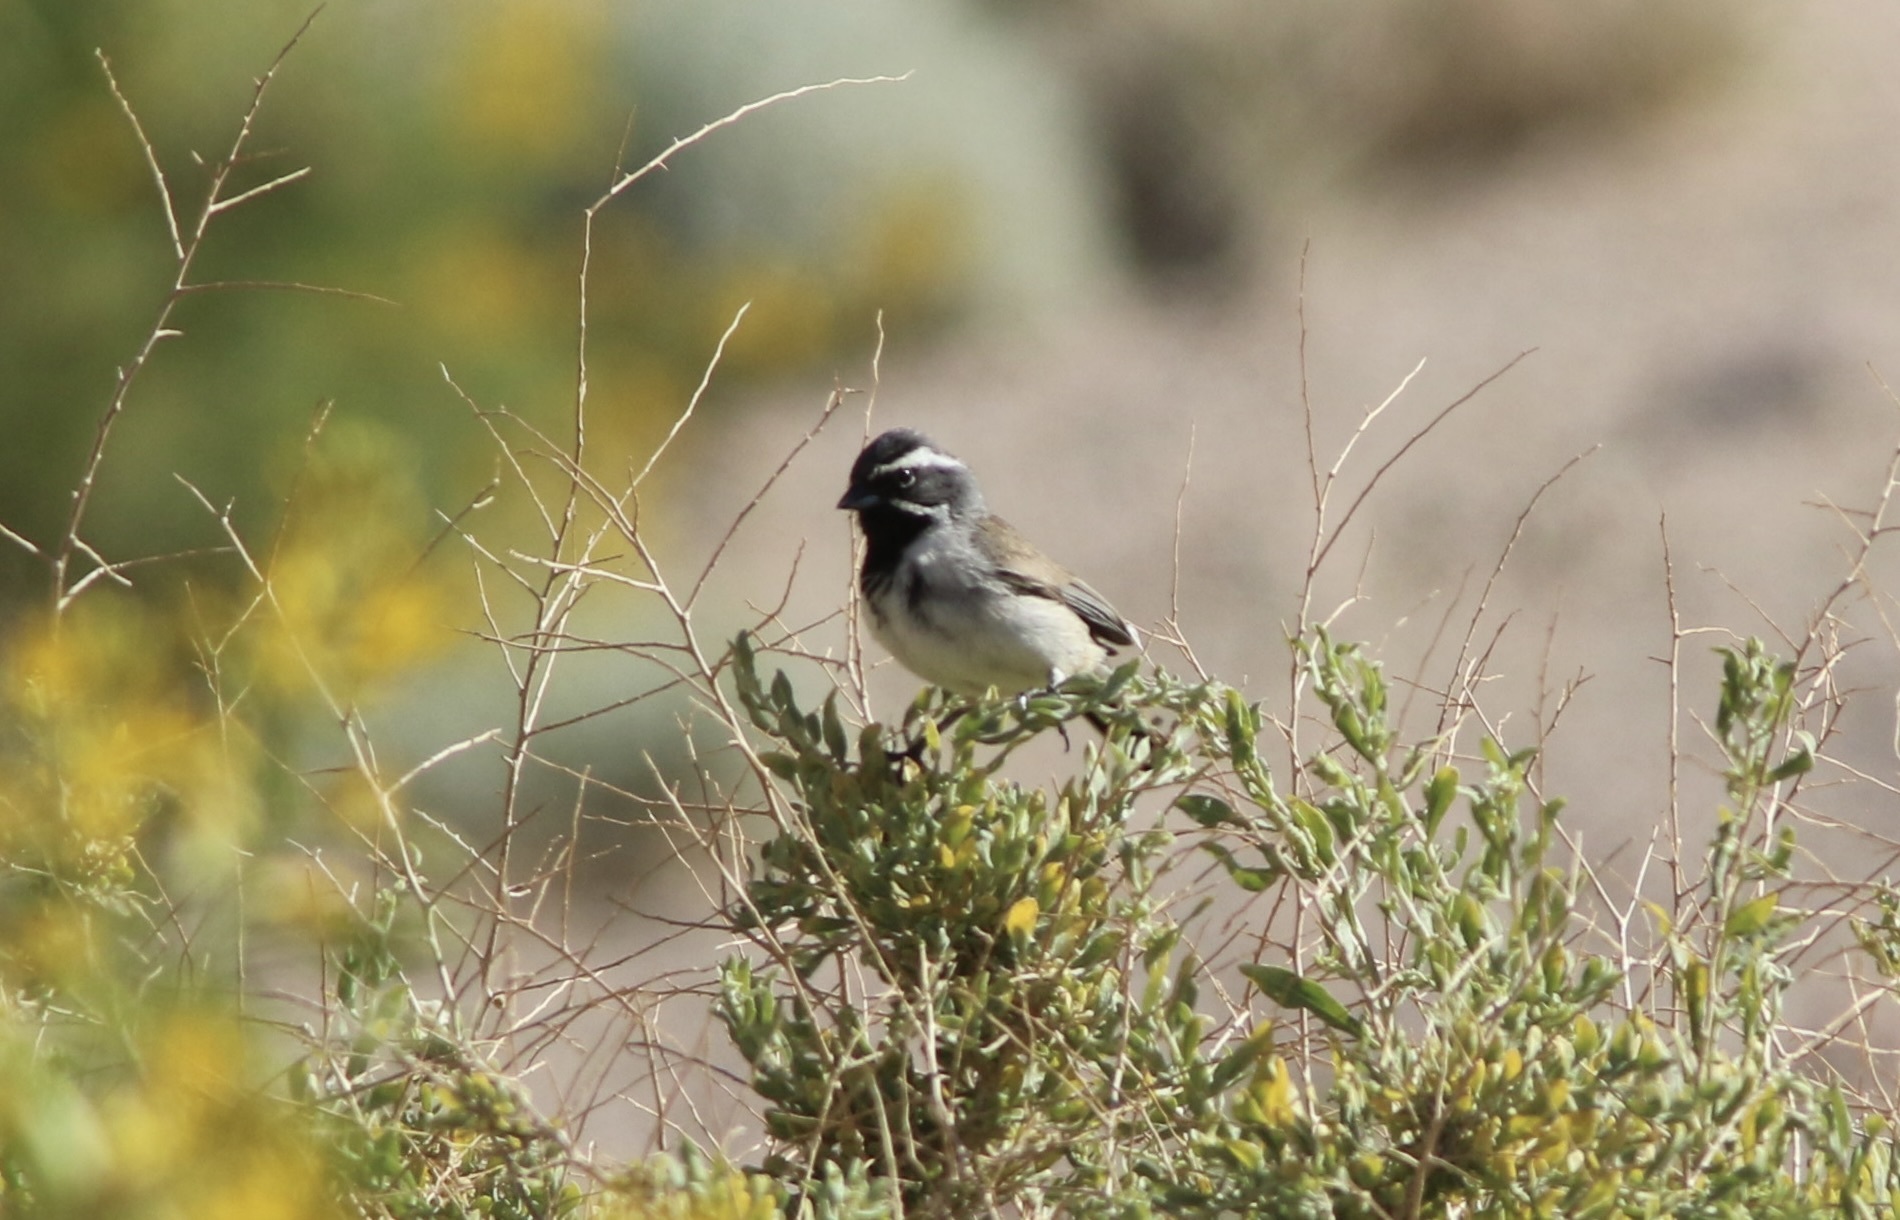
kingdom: Animalia
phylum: Chordata
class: Aves
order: Passeriformes
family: Passerellidae
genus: Amphispiza
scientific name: Amphispiza bilineata
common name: Black-throated sparrow
